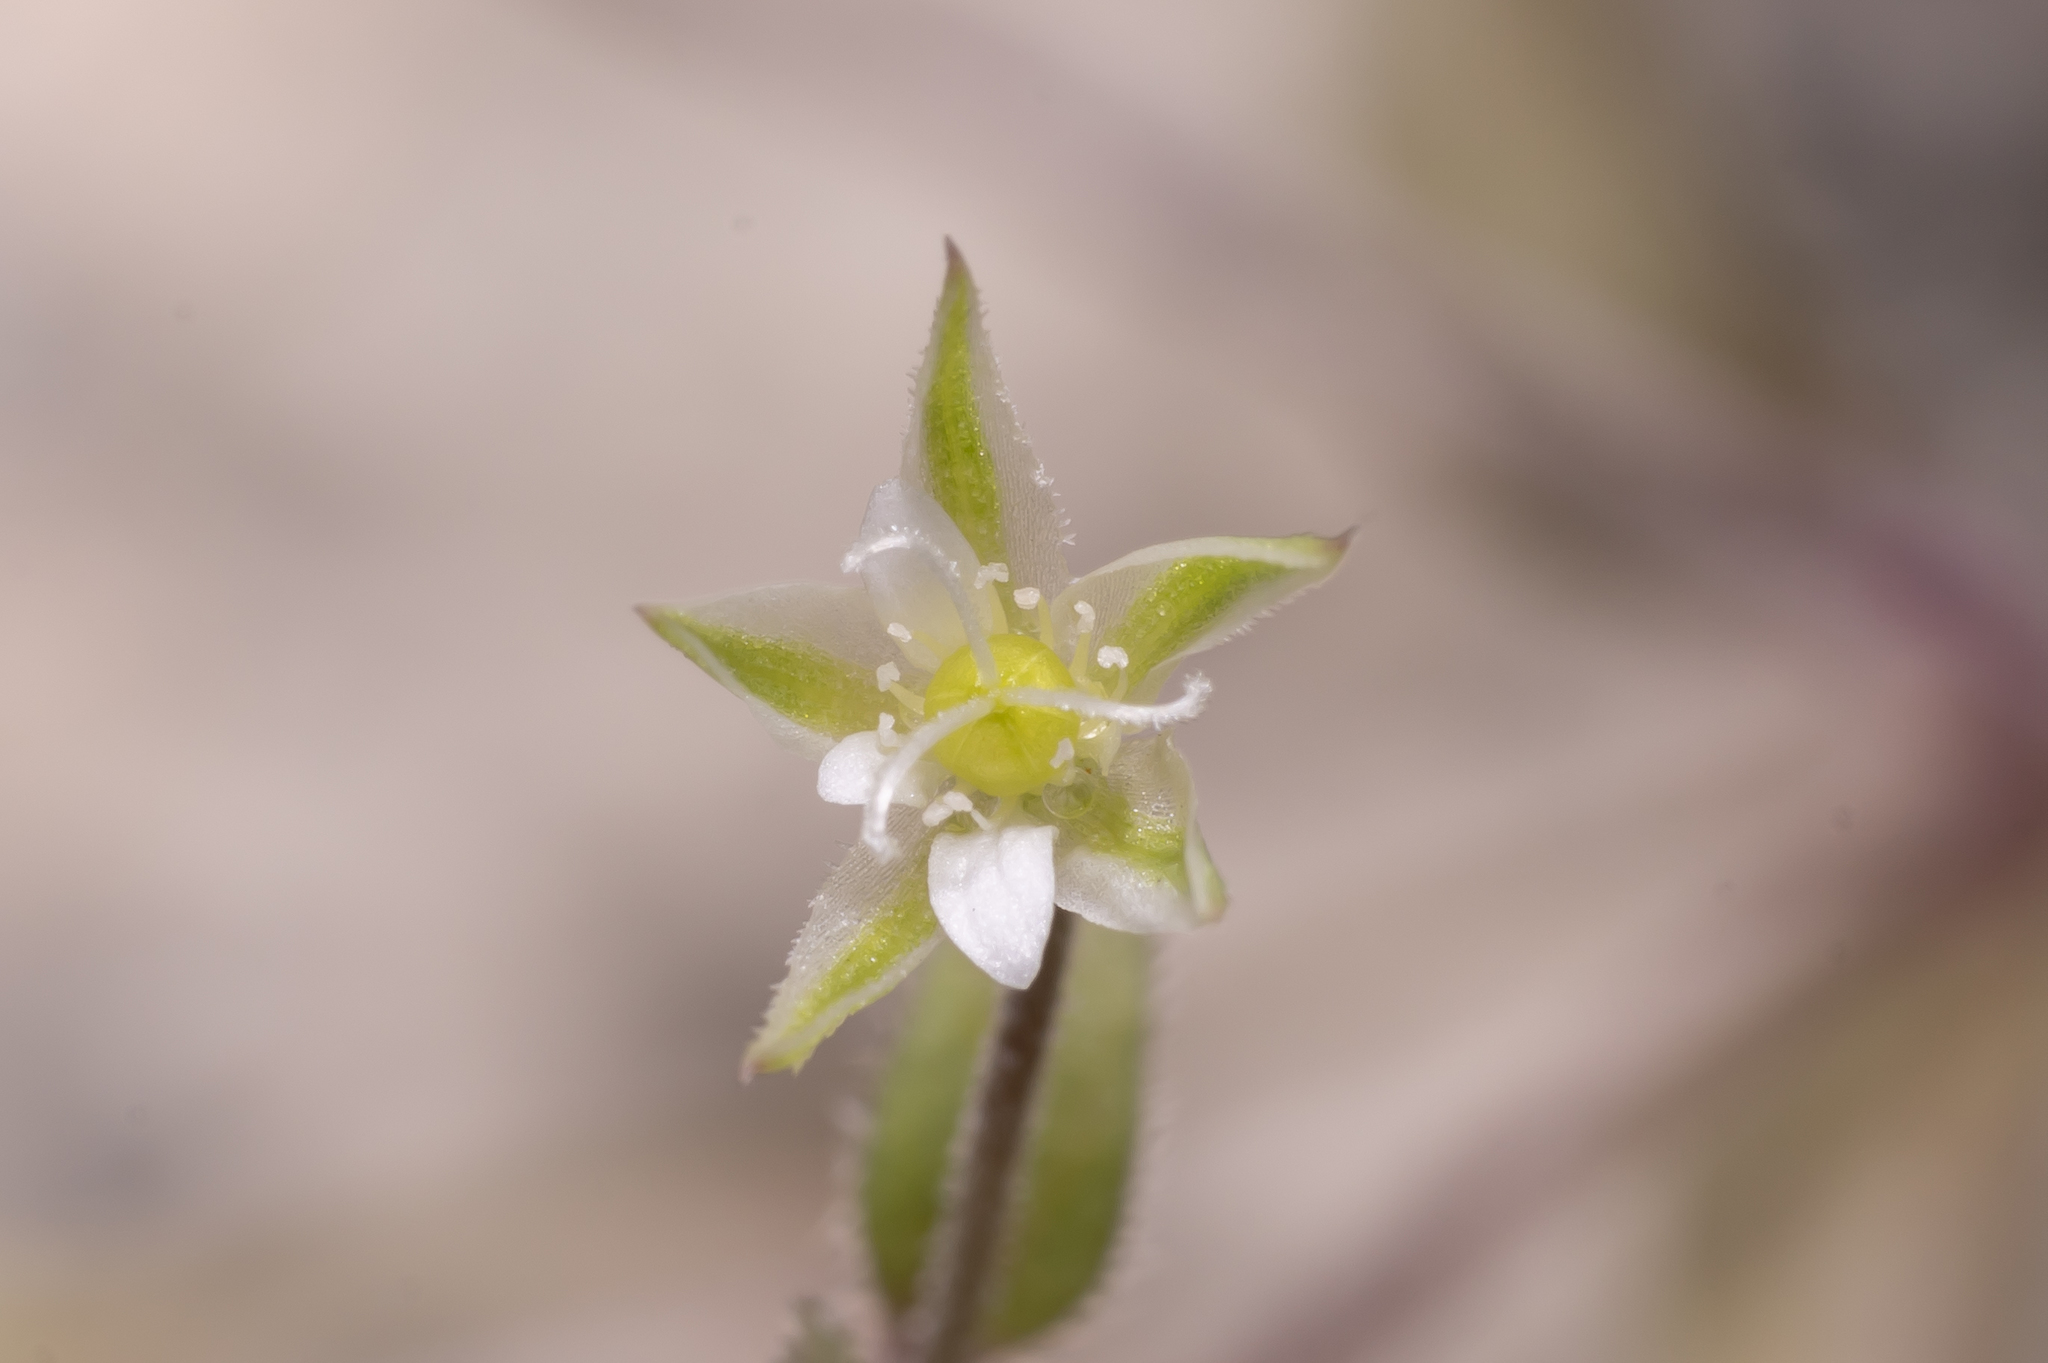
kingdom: Plantae
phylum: Tracheophyta
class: Magnoliopsida
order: Caryophyllales
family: Caryophyllaceae
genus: Moehringia
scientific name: Moehringia trinervia
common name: Three-nerved sandwort
